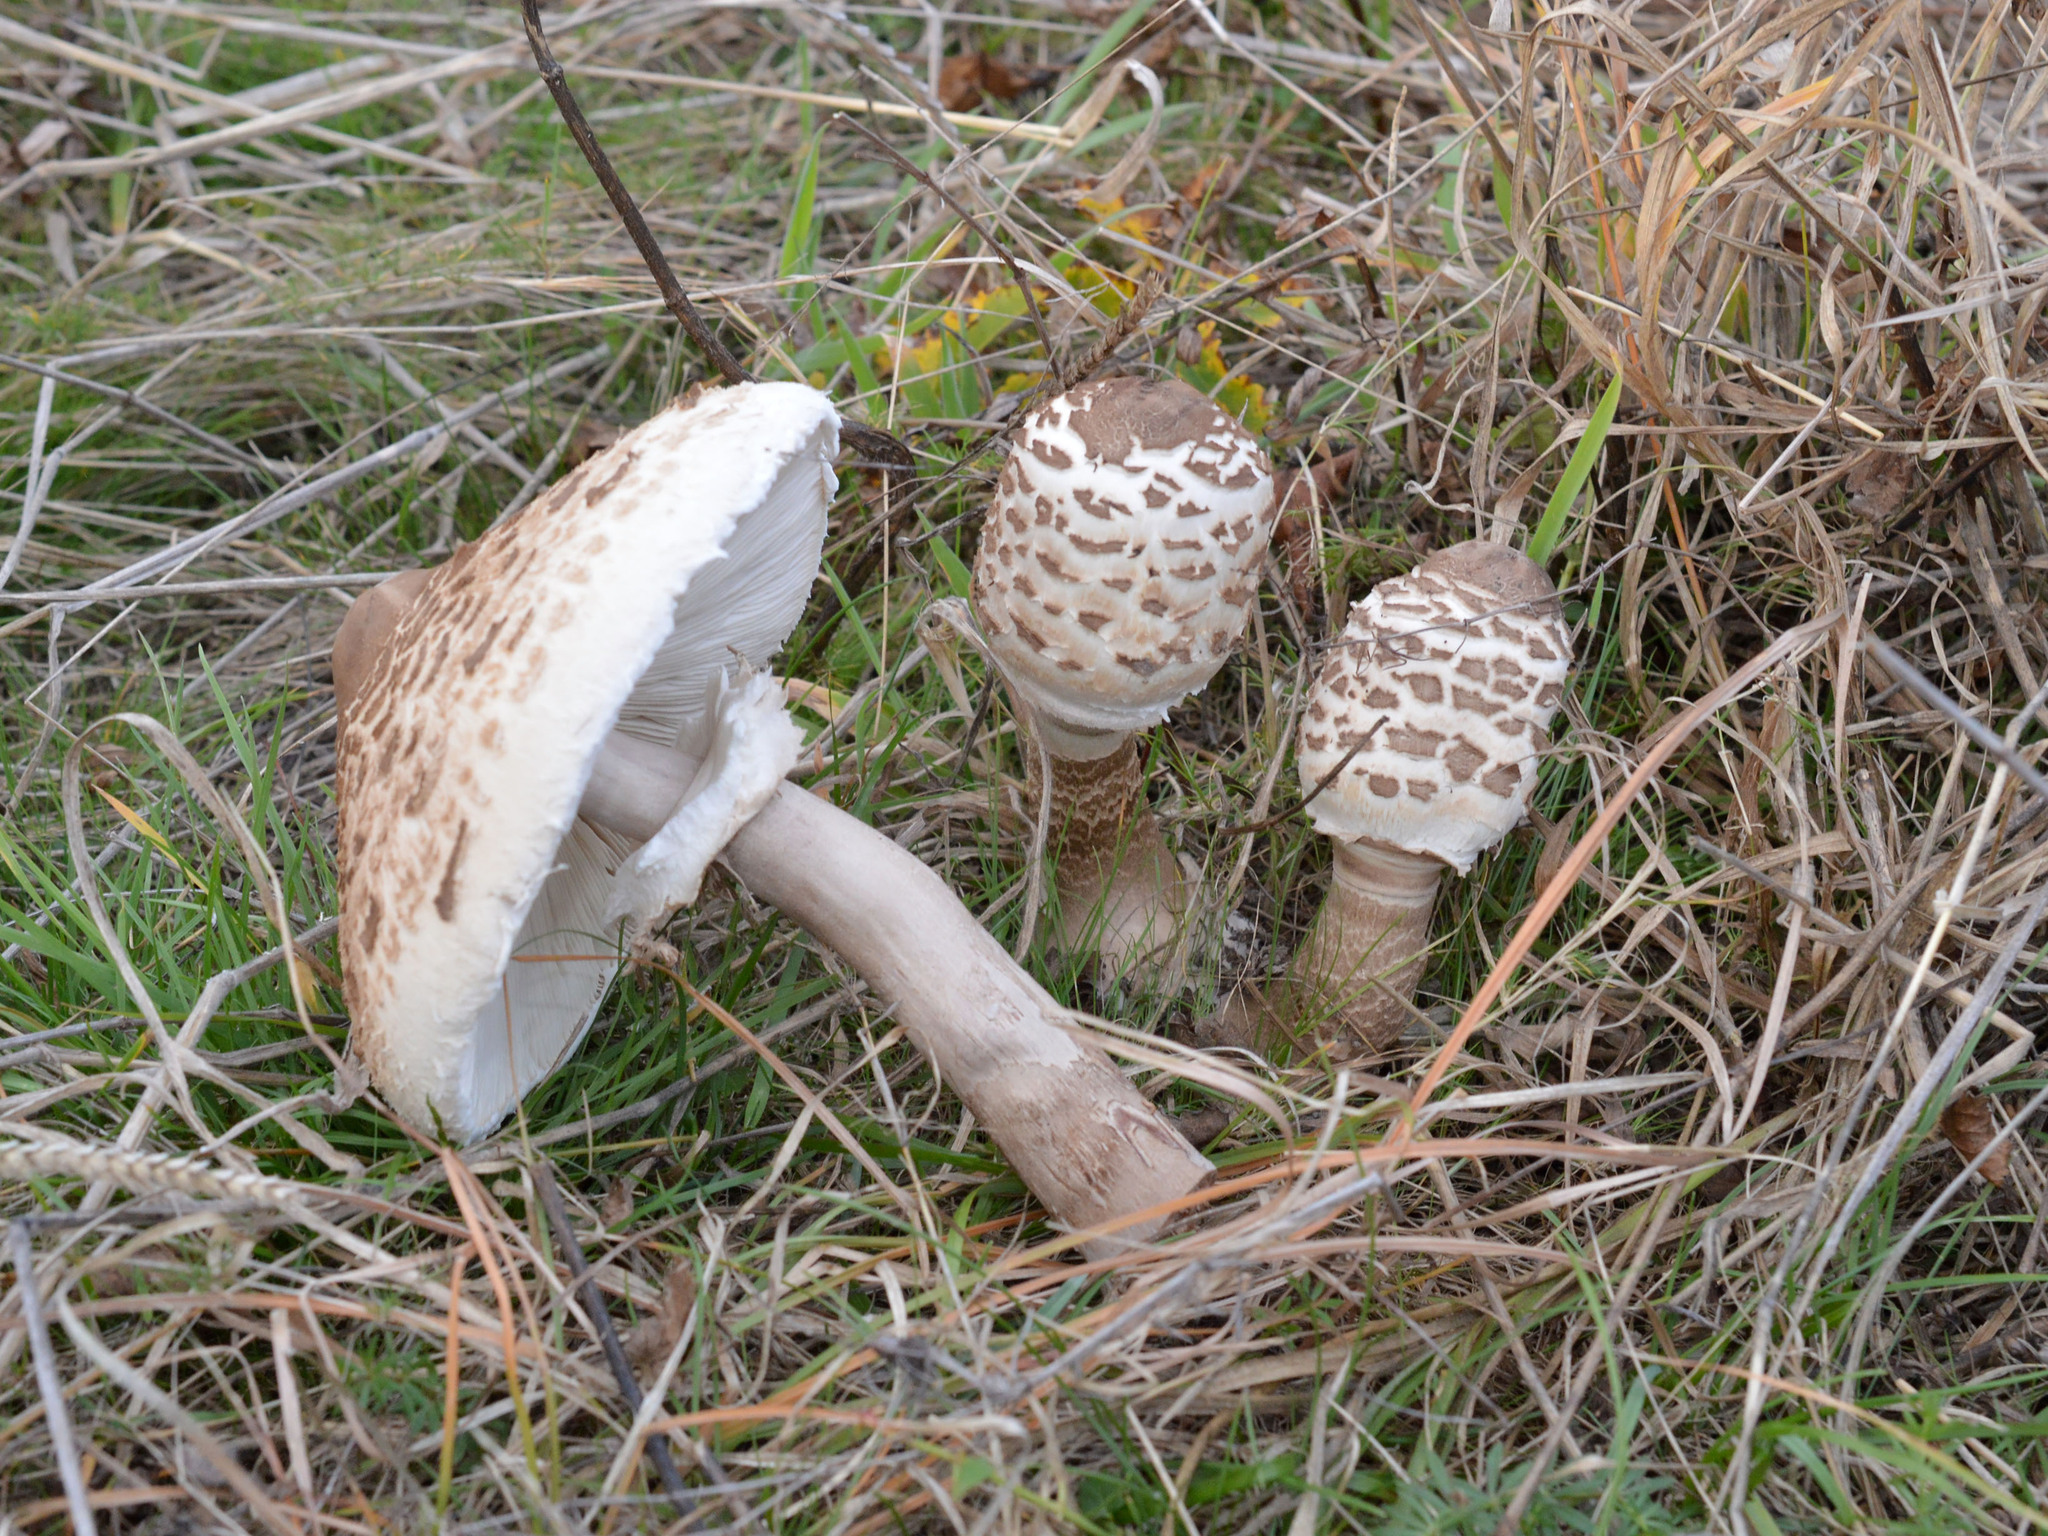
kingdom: Fungi
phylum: Basidiomycota
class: Agaricomycetes
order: Agaricales
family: Agaricaceae
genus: Macrolepiota
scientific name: Macrolepiota procera
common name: Parasol
